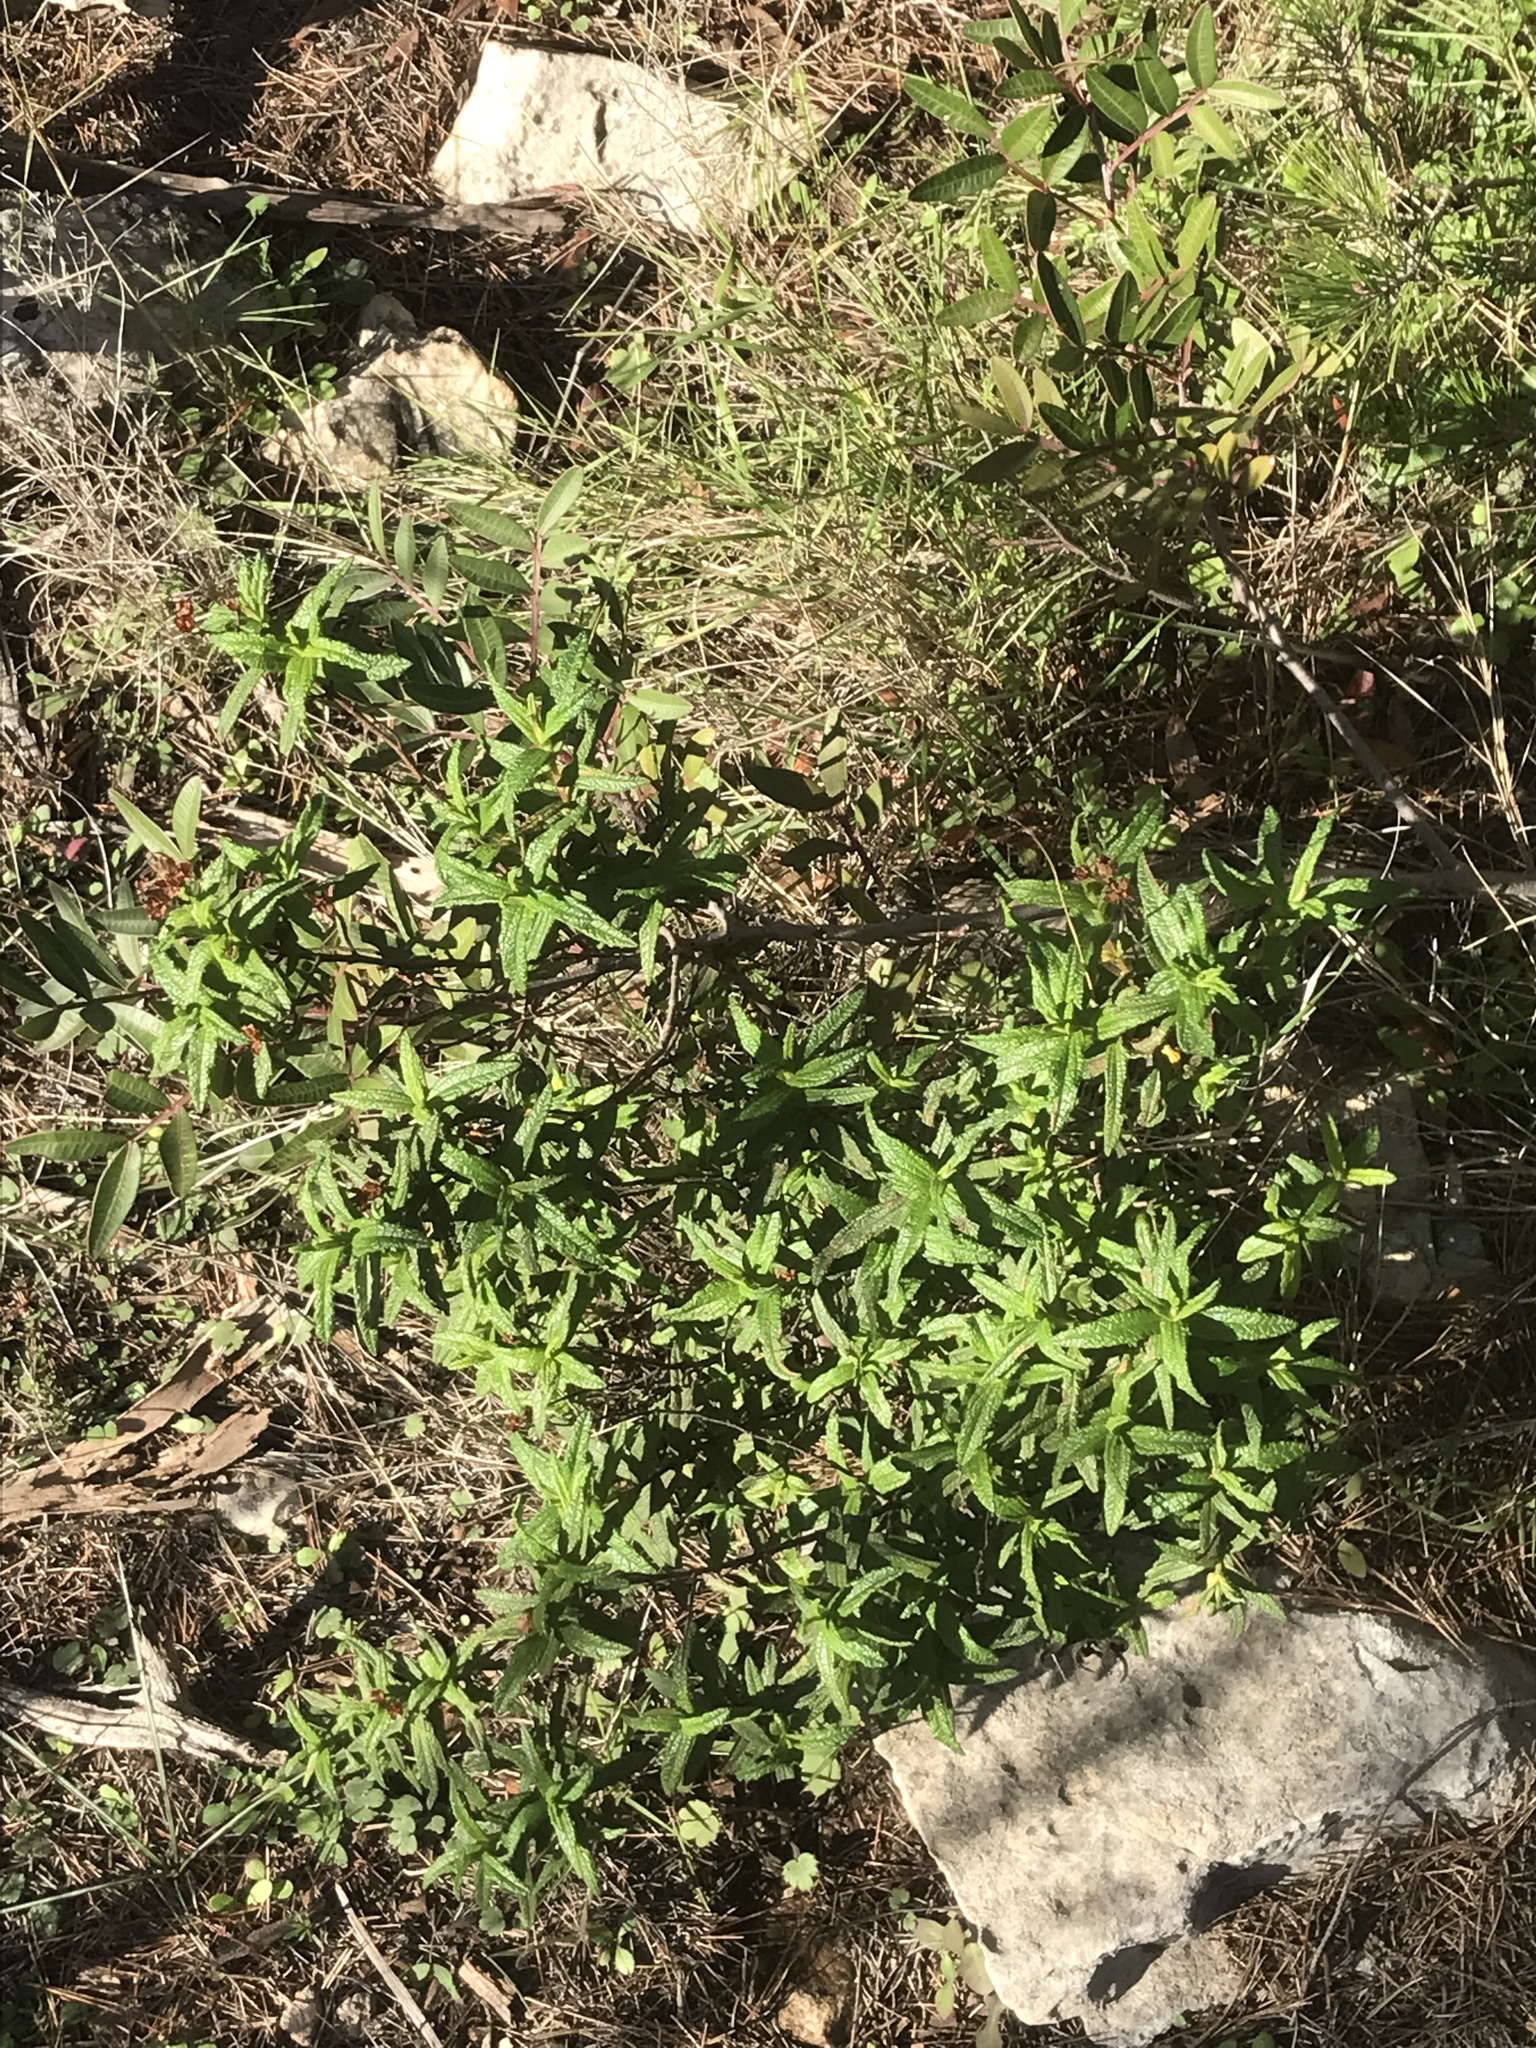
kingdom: Plantae
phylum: Tracheophyta
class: Magnoliopsida
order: Malvales
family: Cistaceae
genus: Cistus
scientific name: Cistus monspeliensis
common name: Montpelier cistus
